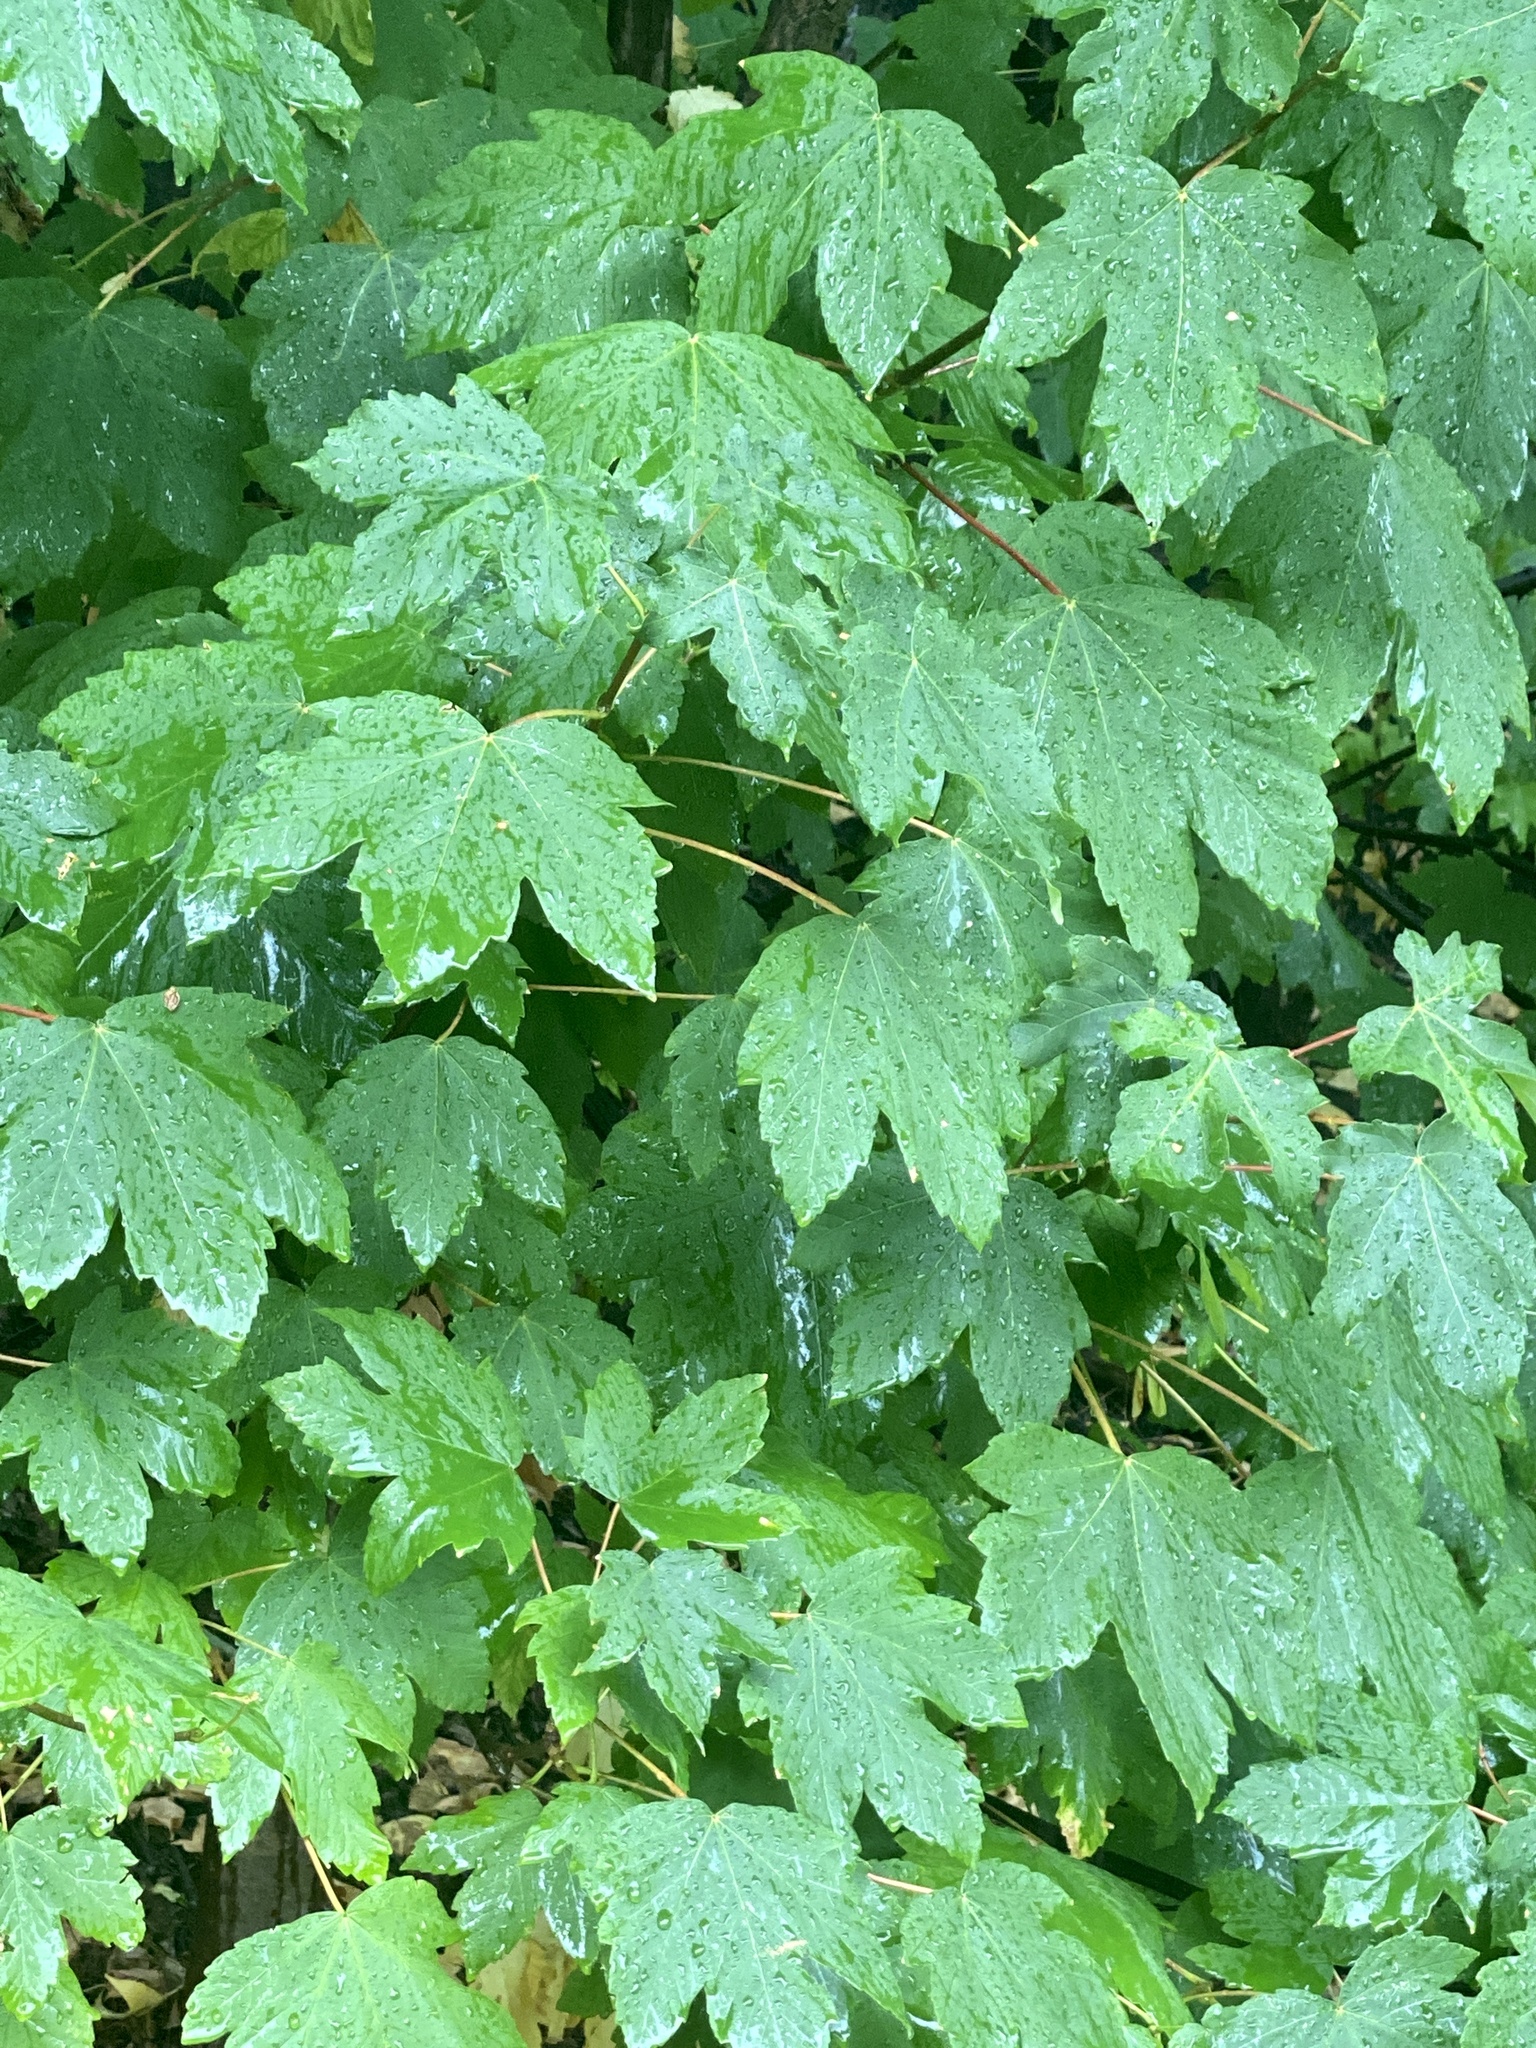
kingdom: Plantae
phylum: Tracheophyta
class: Magnoliopsida
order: Sapindales
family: Sapindaceae
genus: Acer
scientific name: Acer pseudoplatanus
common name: Sycamore
